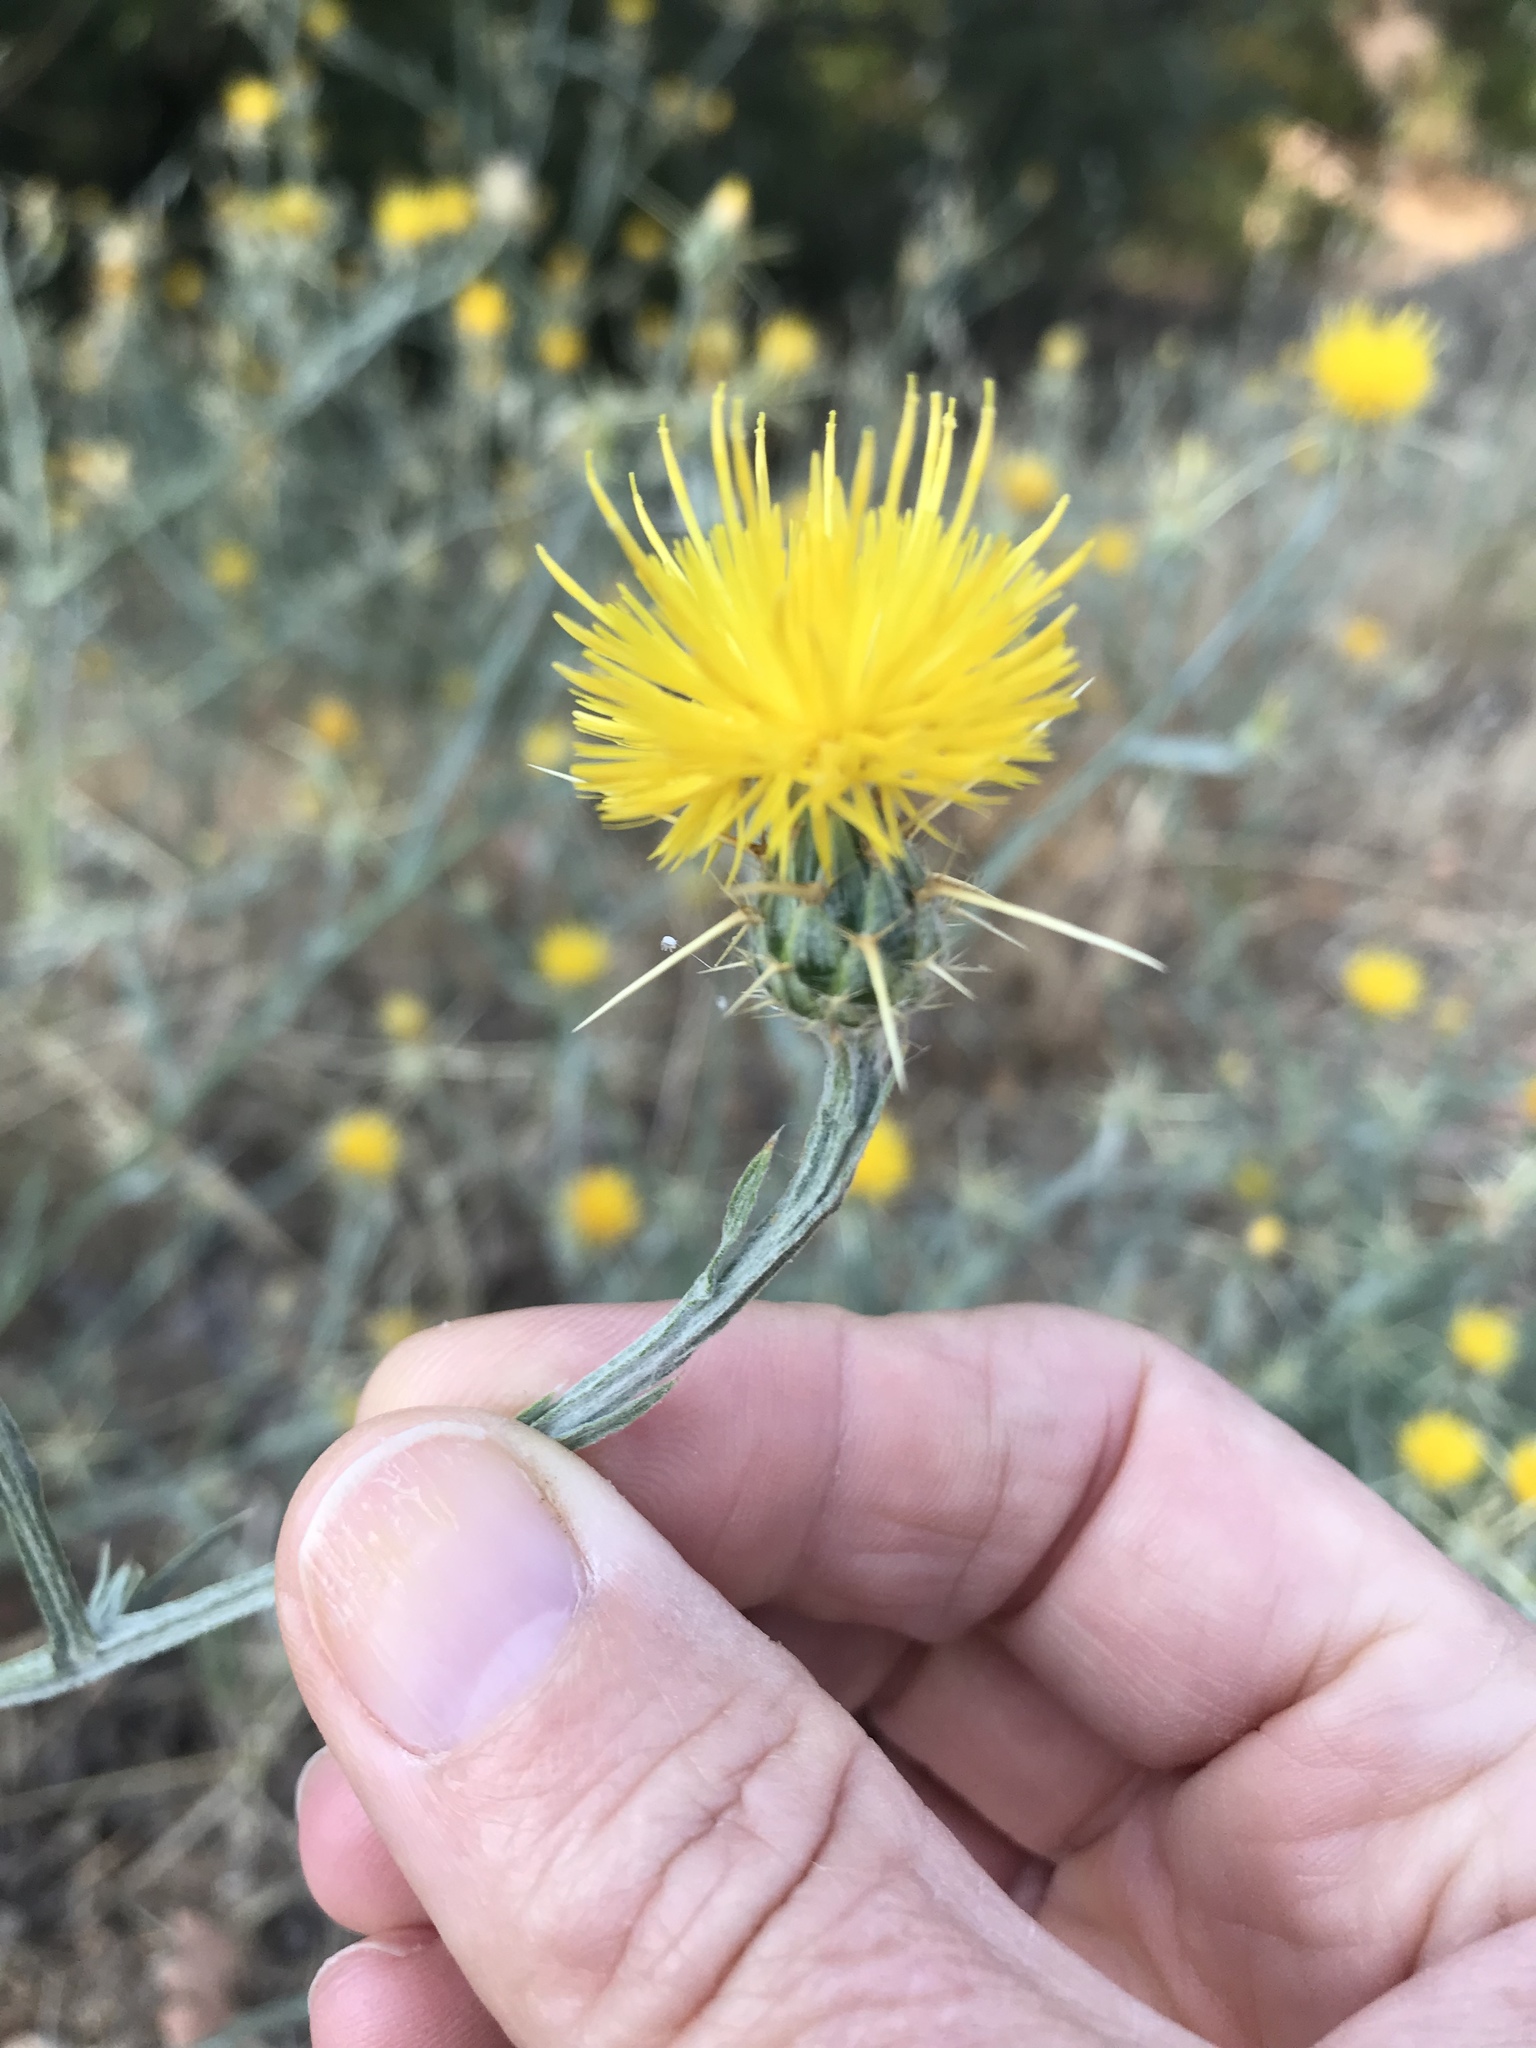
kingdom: Plantae
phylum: Tracheophyta
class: Magnoliopsida
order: Asterales
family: Asteraceae
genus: Centaurea
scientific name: Centaurea solstitialis
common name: Yellow star-thistle
